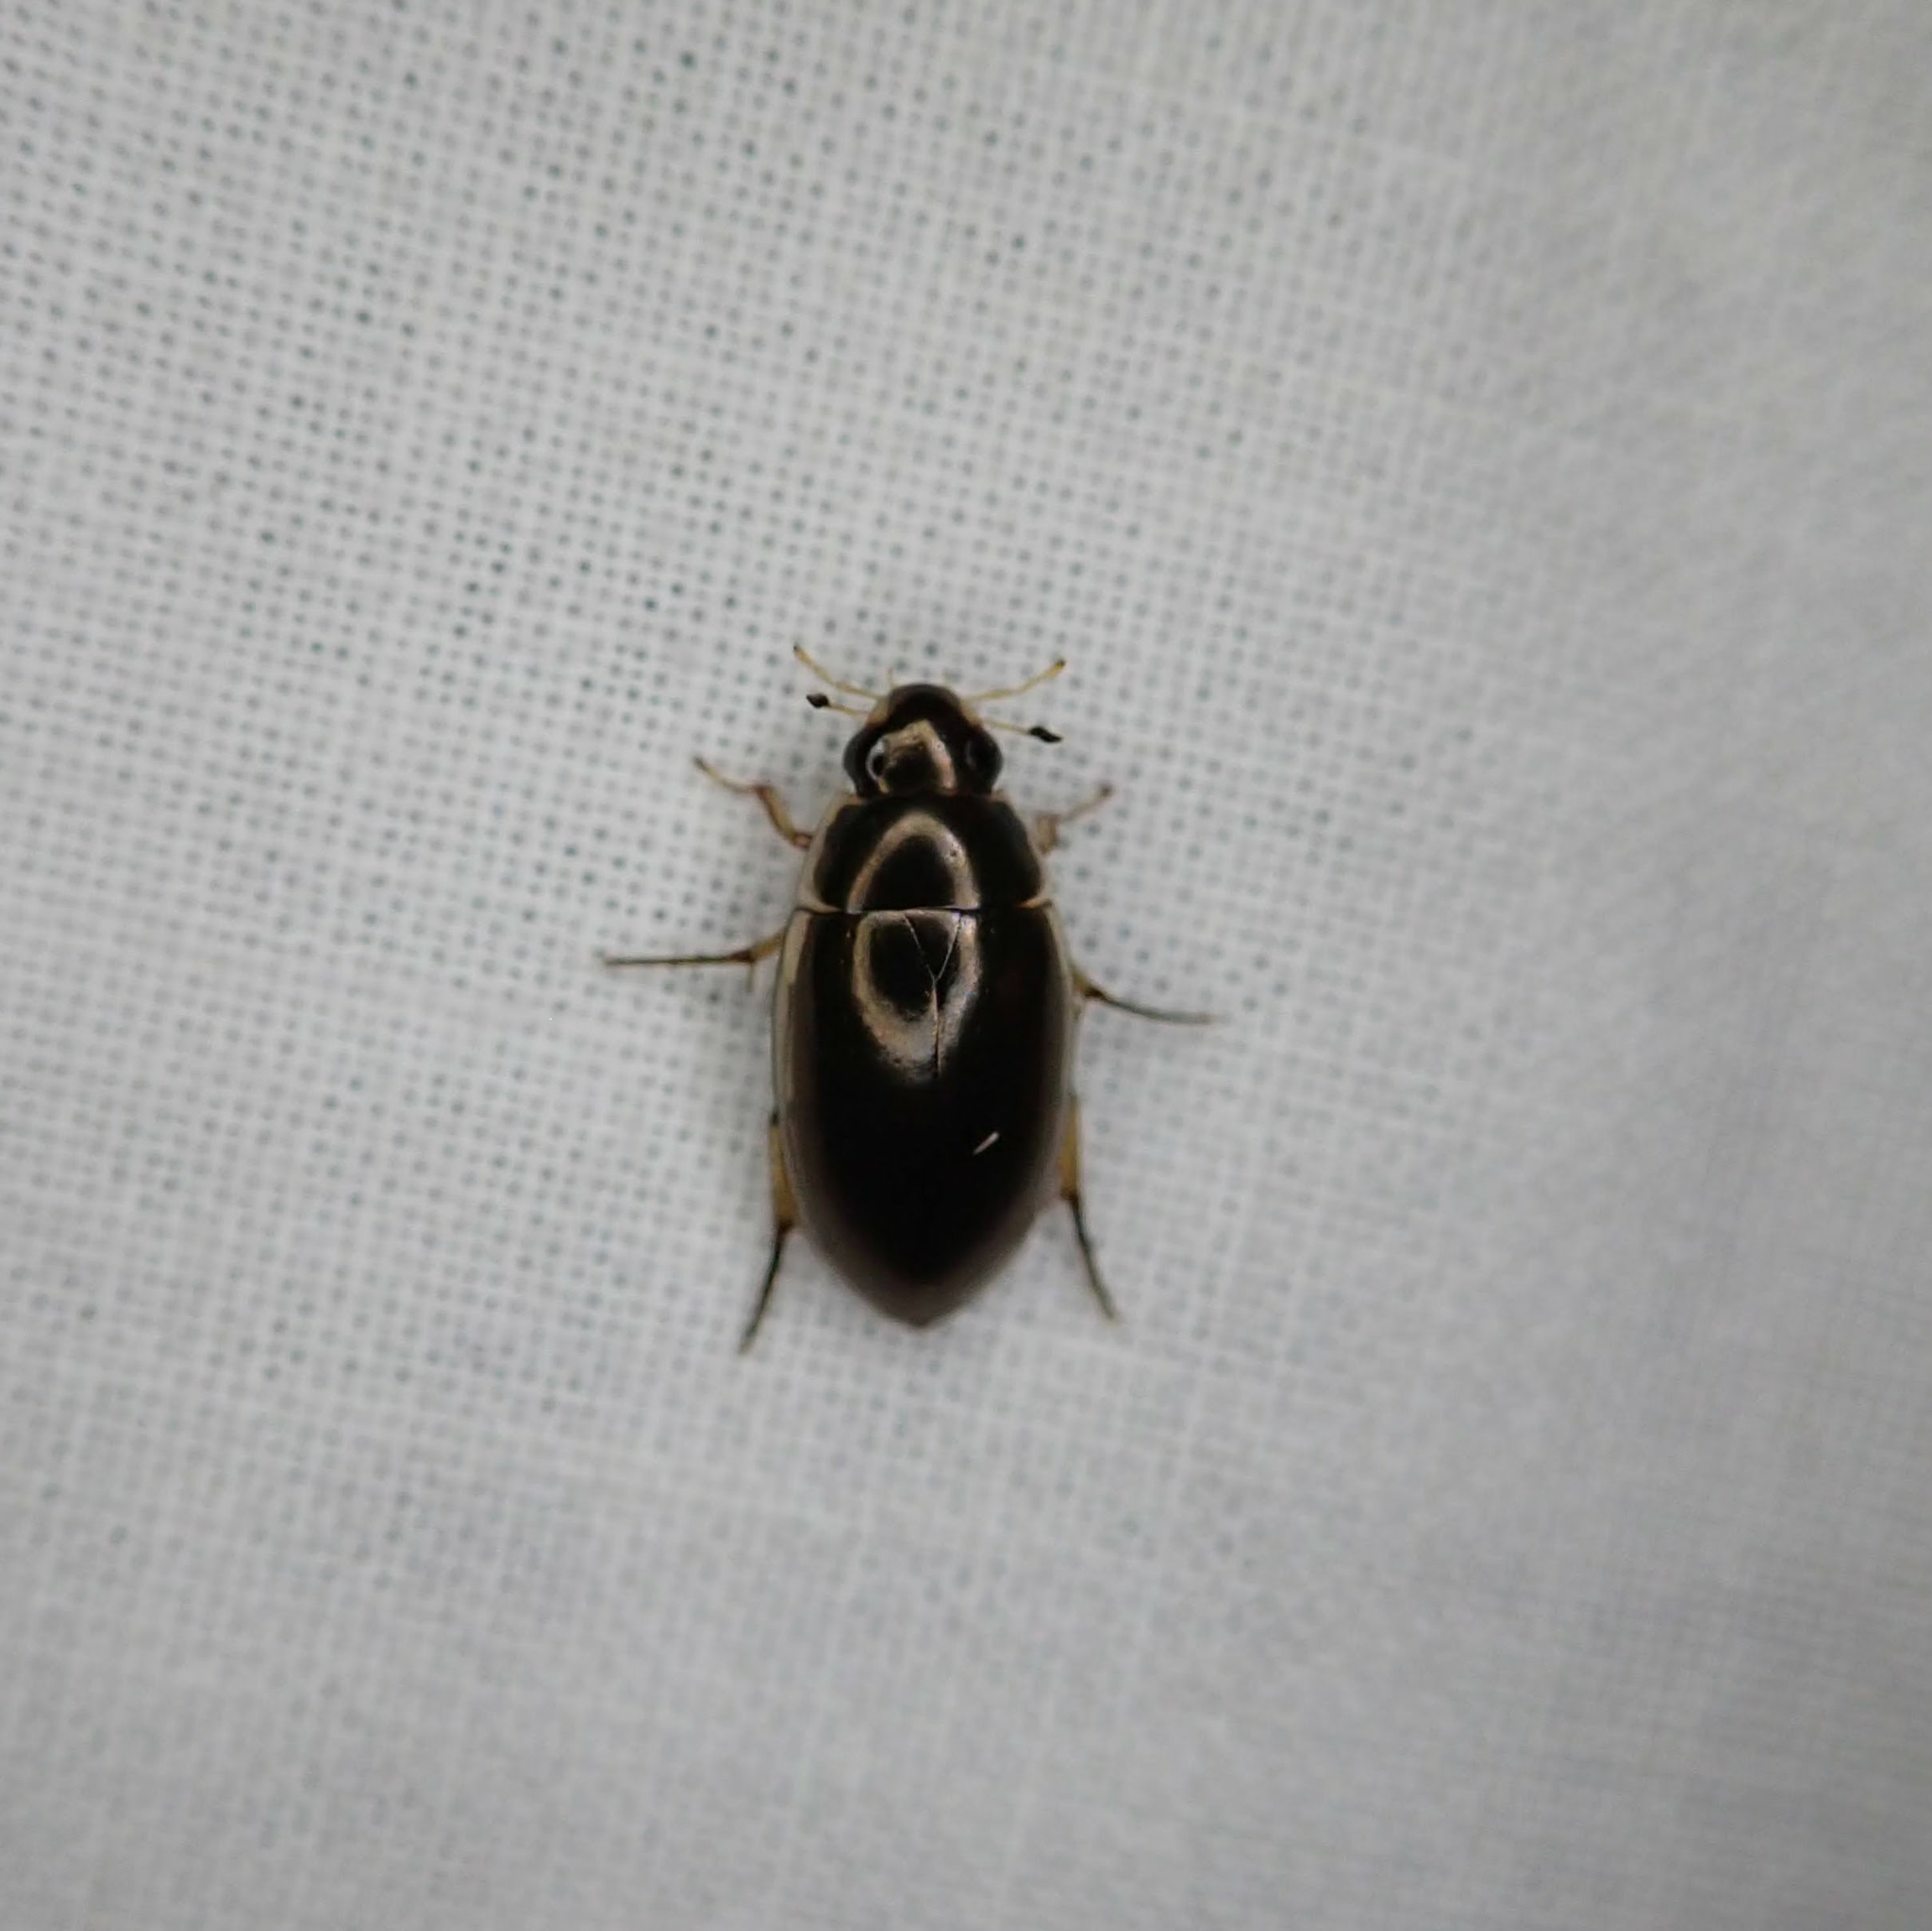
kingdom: Animalia
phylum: Arthropoda
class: Insecta
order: Coleoptera
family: Hydrophilidae
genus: Tropisternus
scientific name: Tropisternus lateralis
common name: Lateral-banded water scavenger beetle
